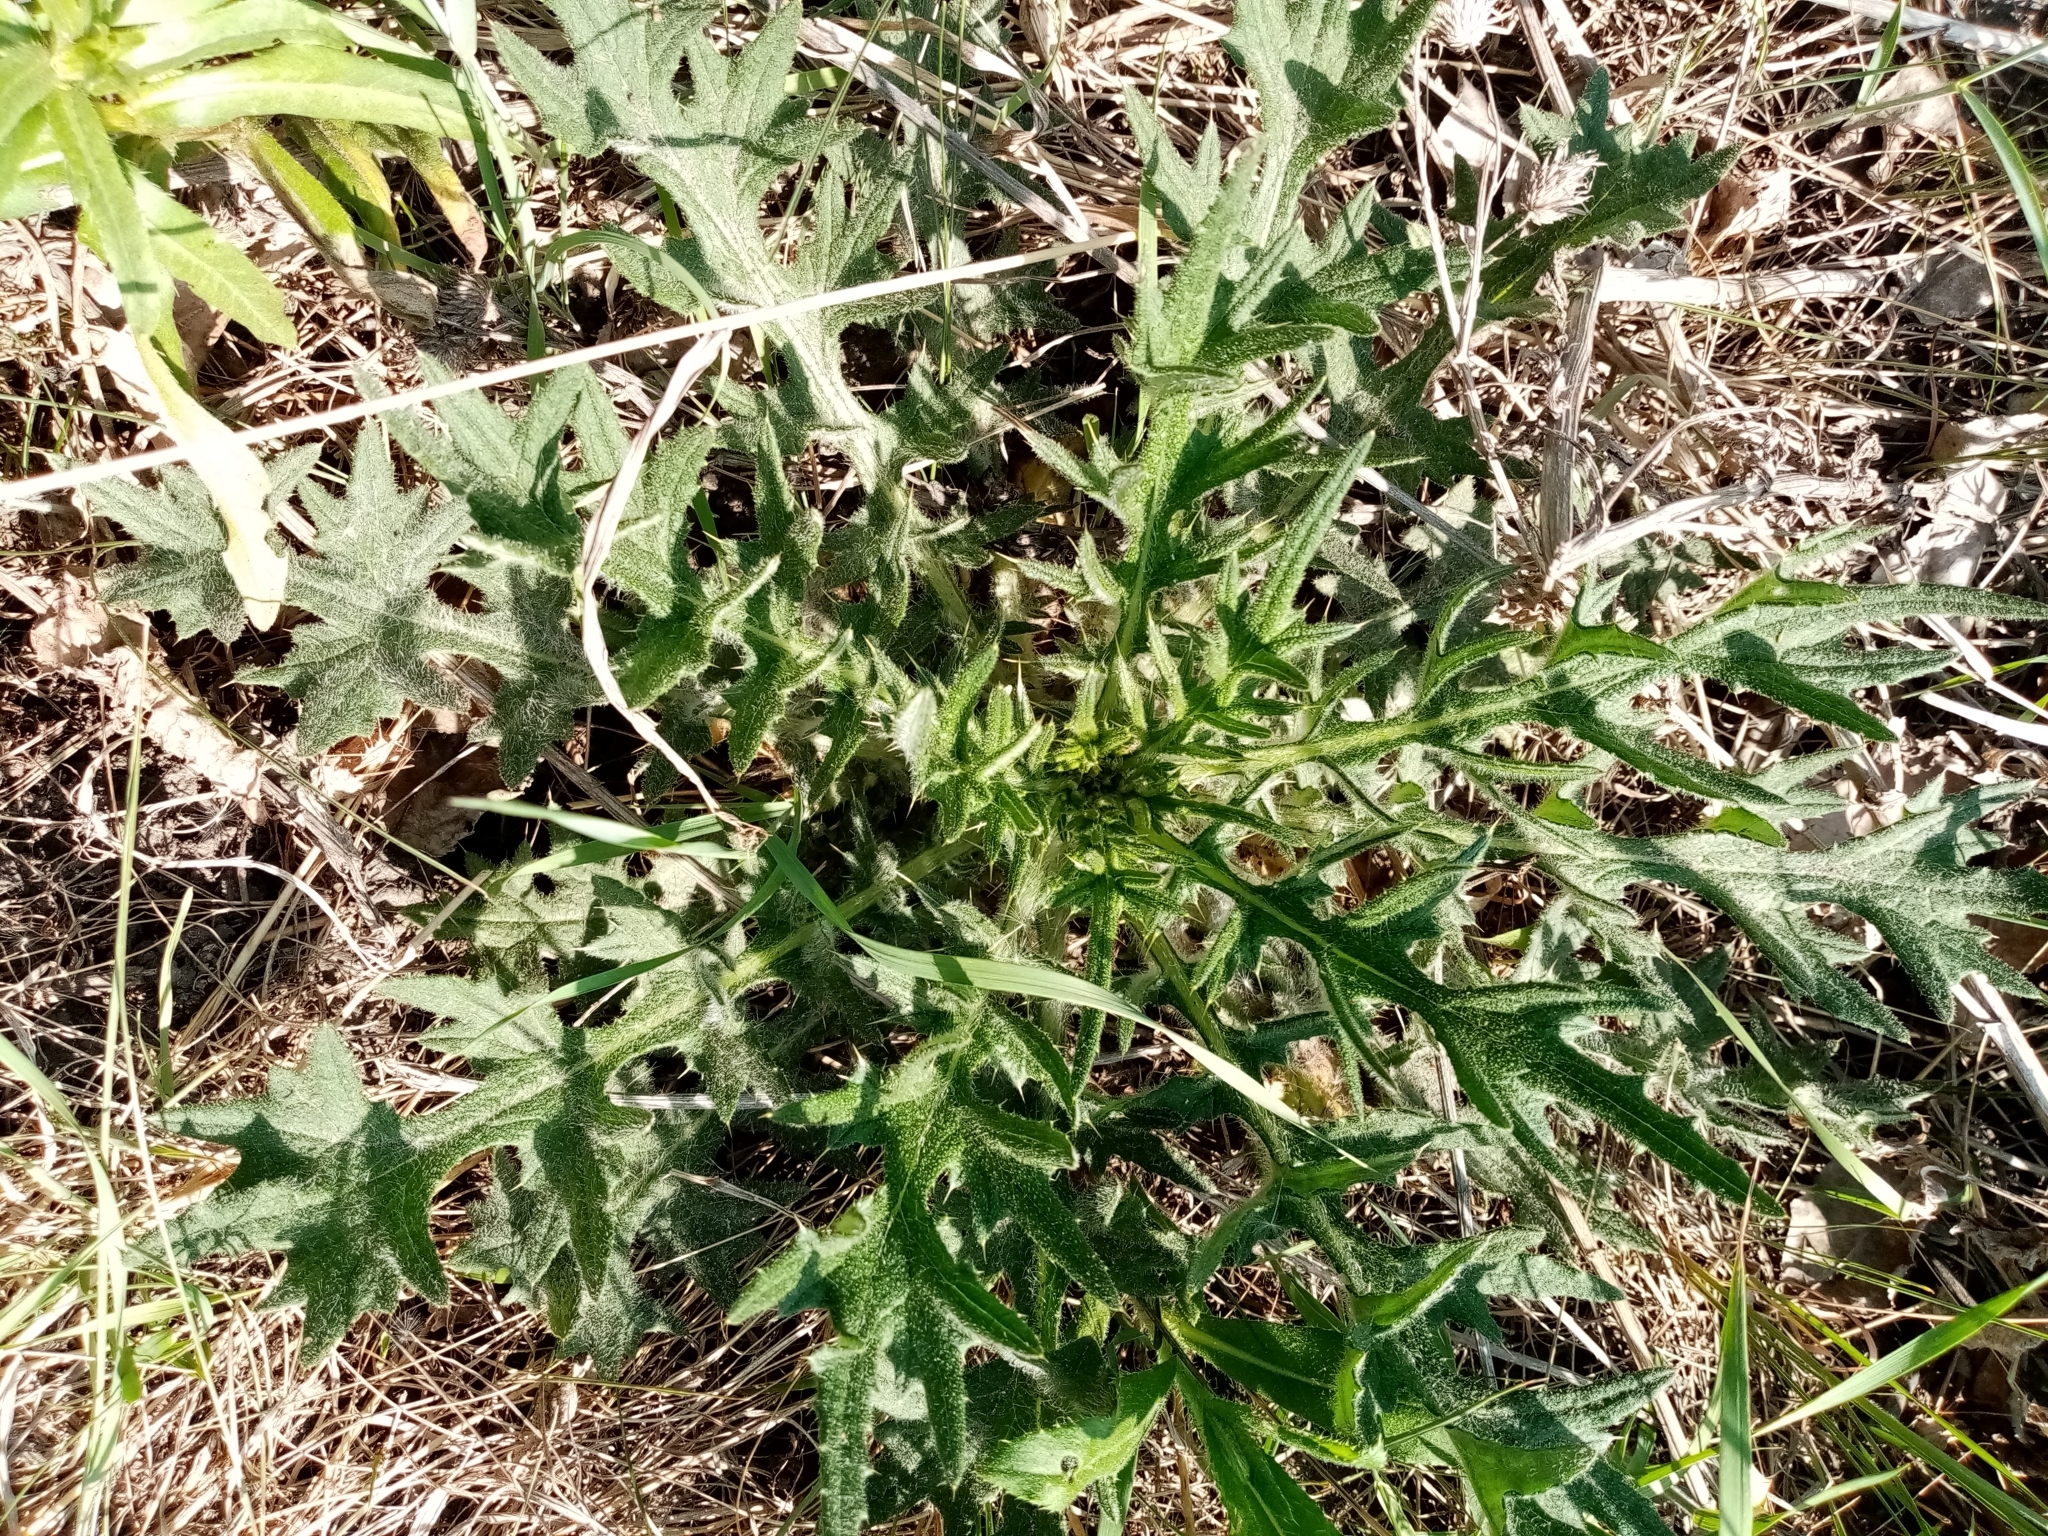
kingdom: Plantae
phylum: Tracheophyta
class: Magnoliopsida
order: Asterales
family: Asteraceae
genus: Cirsium
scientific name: Cirsium vulgare
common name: Bull thistle
